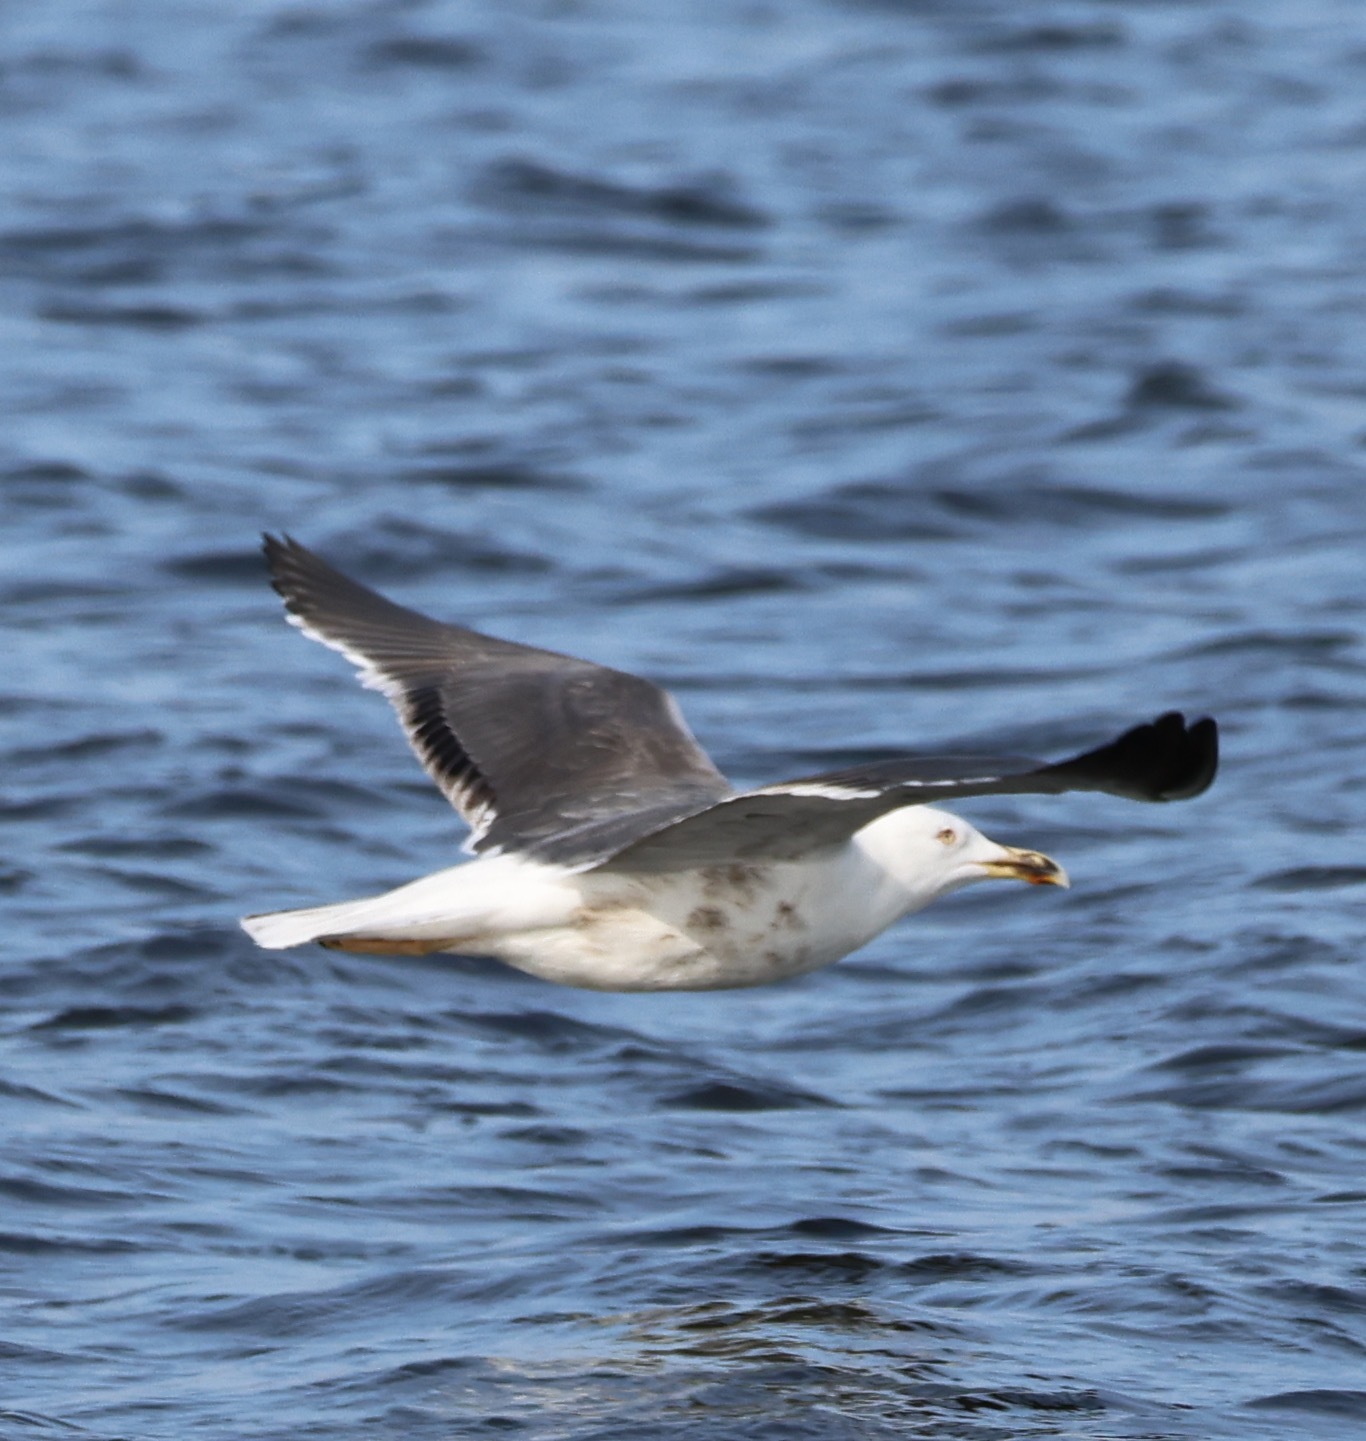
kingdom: Animalia
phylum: Chordata
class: Aves
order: Charadriiformes
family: Laridae
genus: Larus
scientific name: Larus fuscus
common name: Lesser black-backed gull
